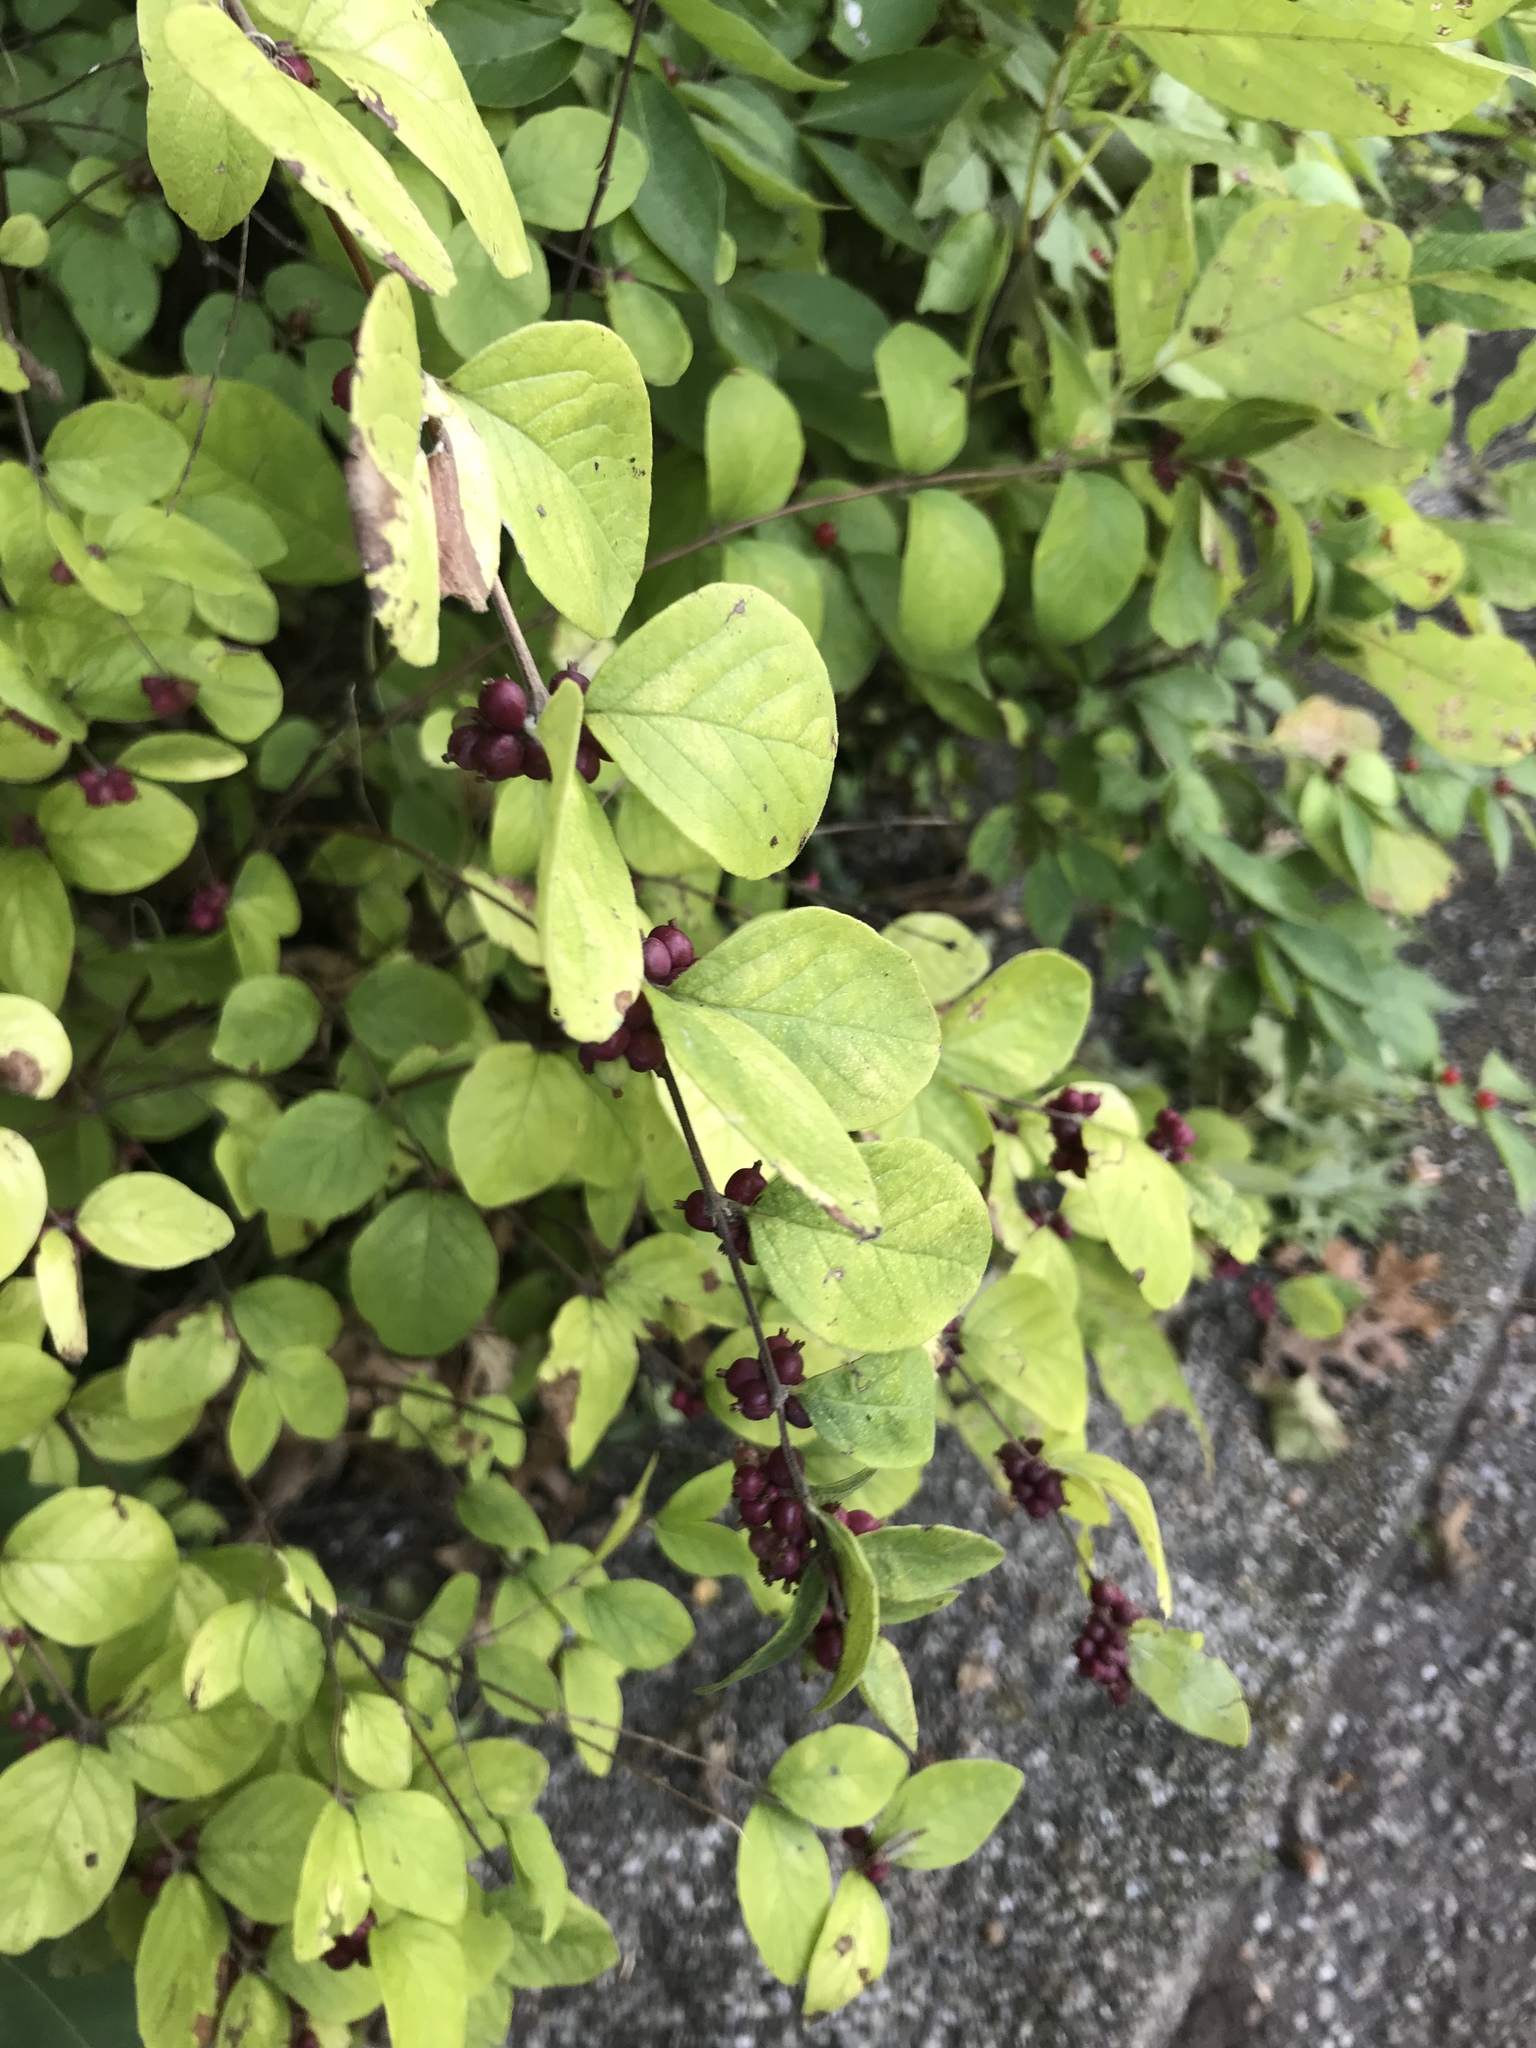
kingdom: Plantae
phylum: Tracheophyta
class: Magnoliopsida
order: Dipsacales
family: Caprifoliaceae
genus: Symphoricarpos
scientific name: Symphoricarpos orbiculatus
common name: Coralberry
